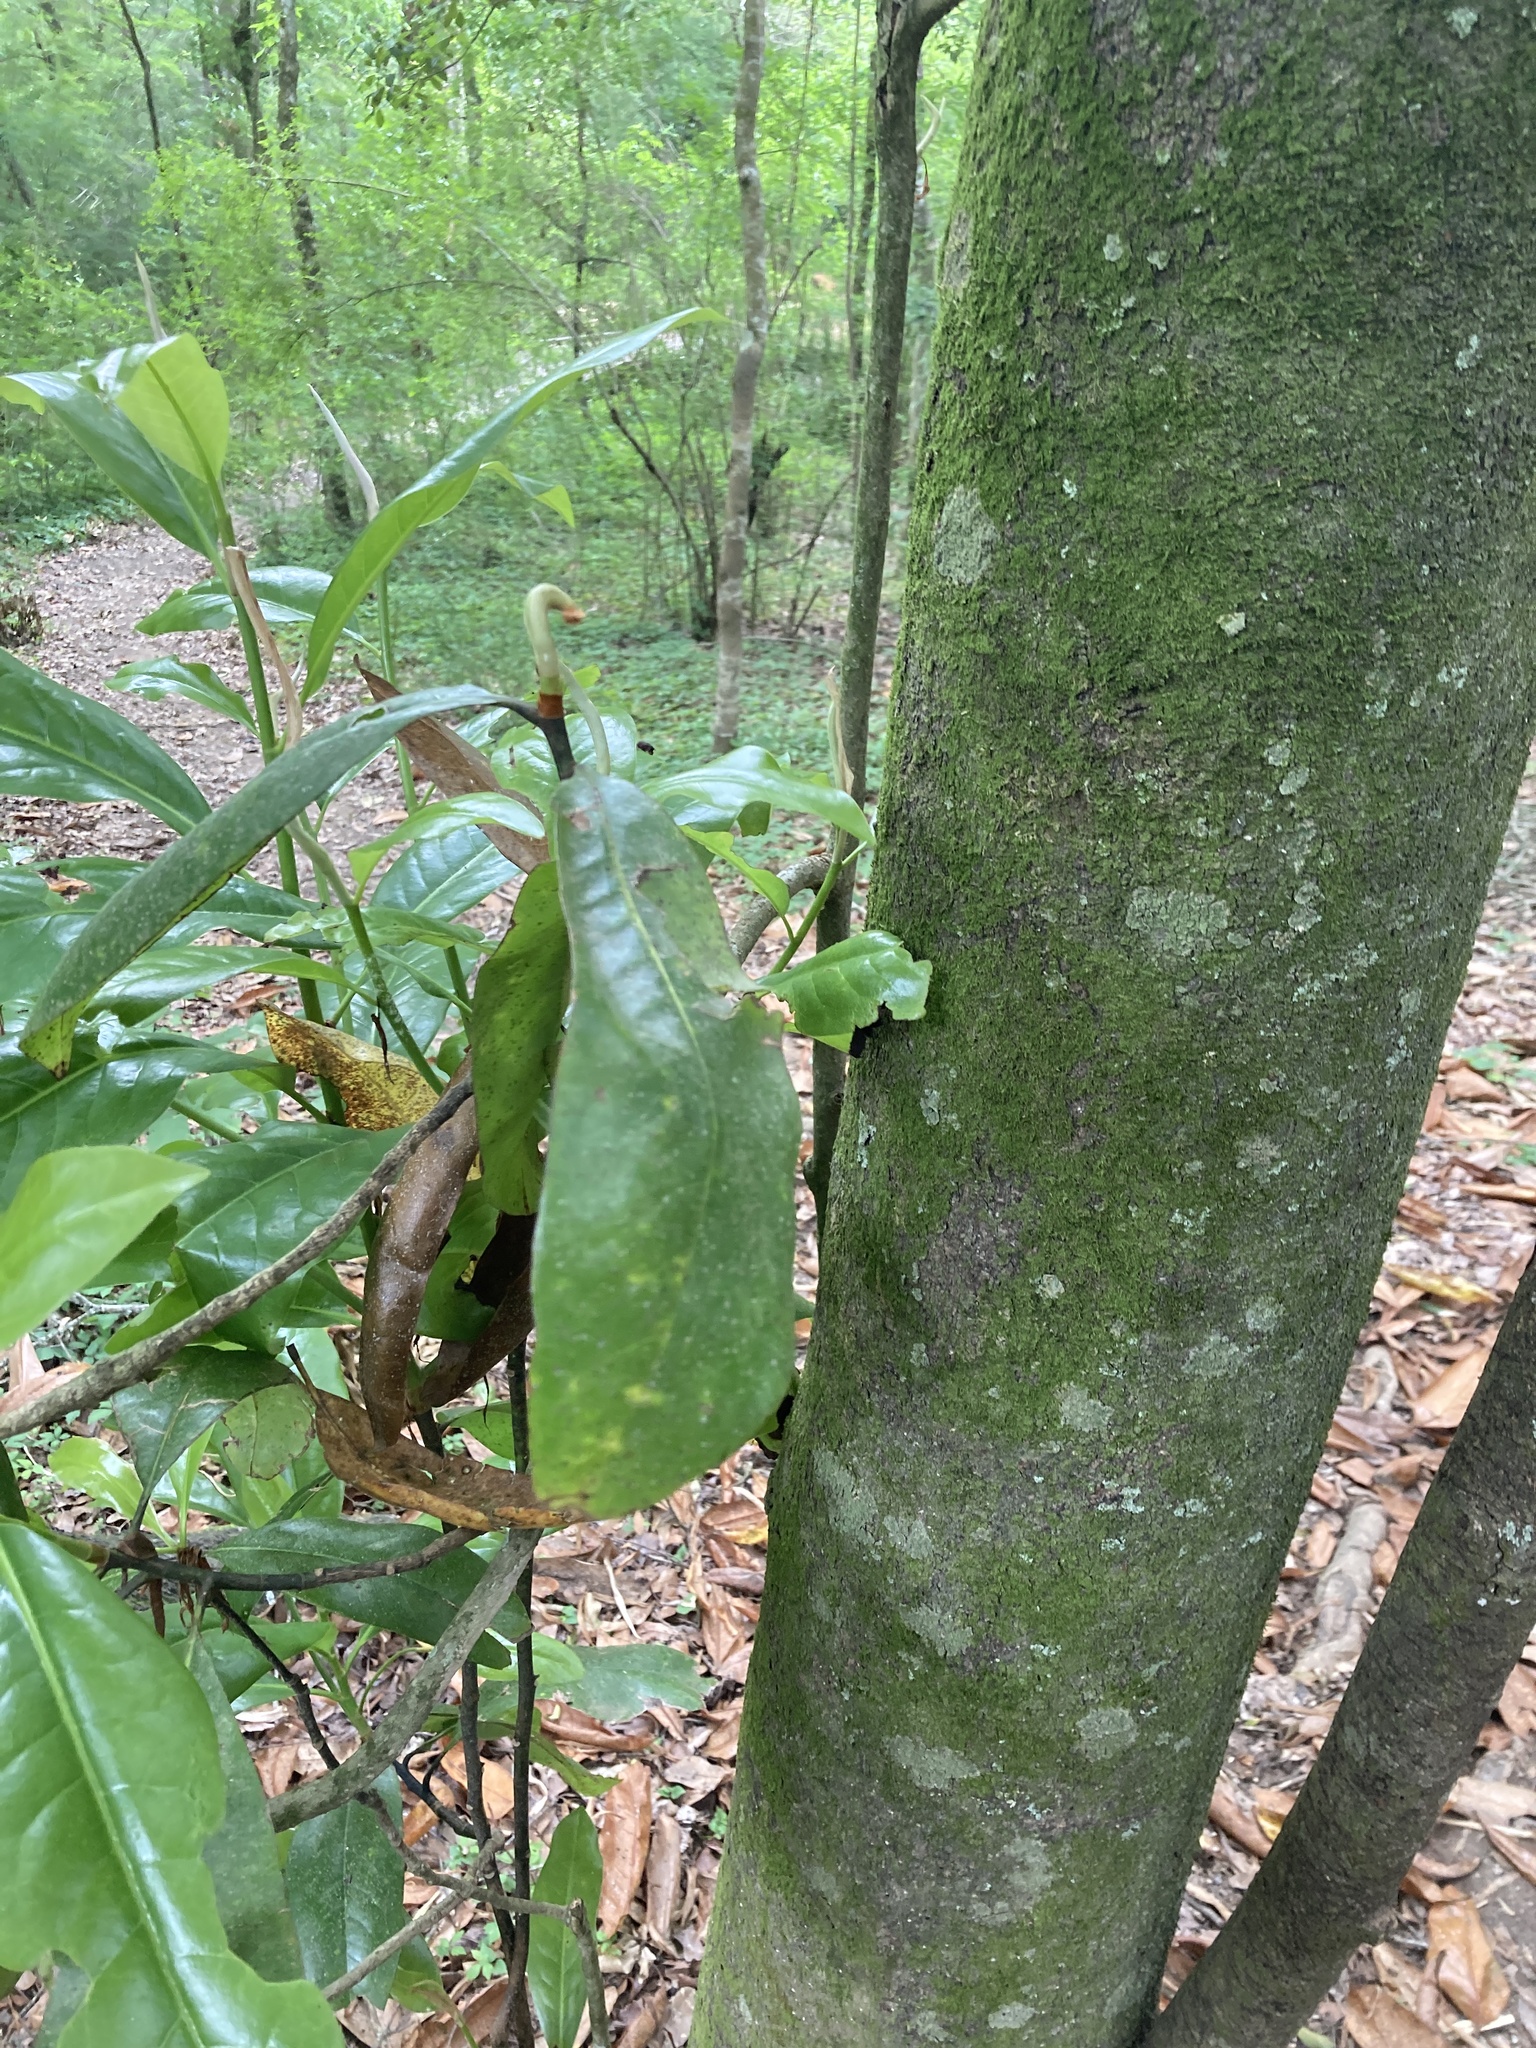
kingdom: Plantae
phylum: Tracheophyta
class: Magnoliopsida
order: Magnoliales
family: Magnoliaceae
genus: Magnolia
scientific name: Magnolia grandiflora
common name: Southern magnolia
